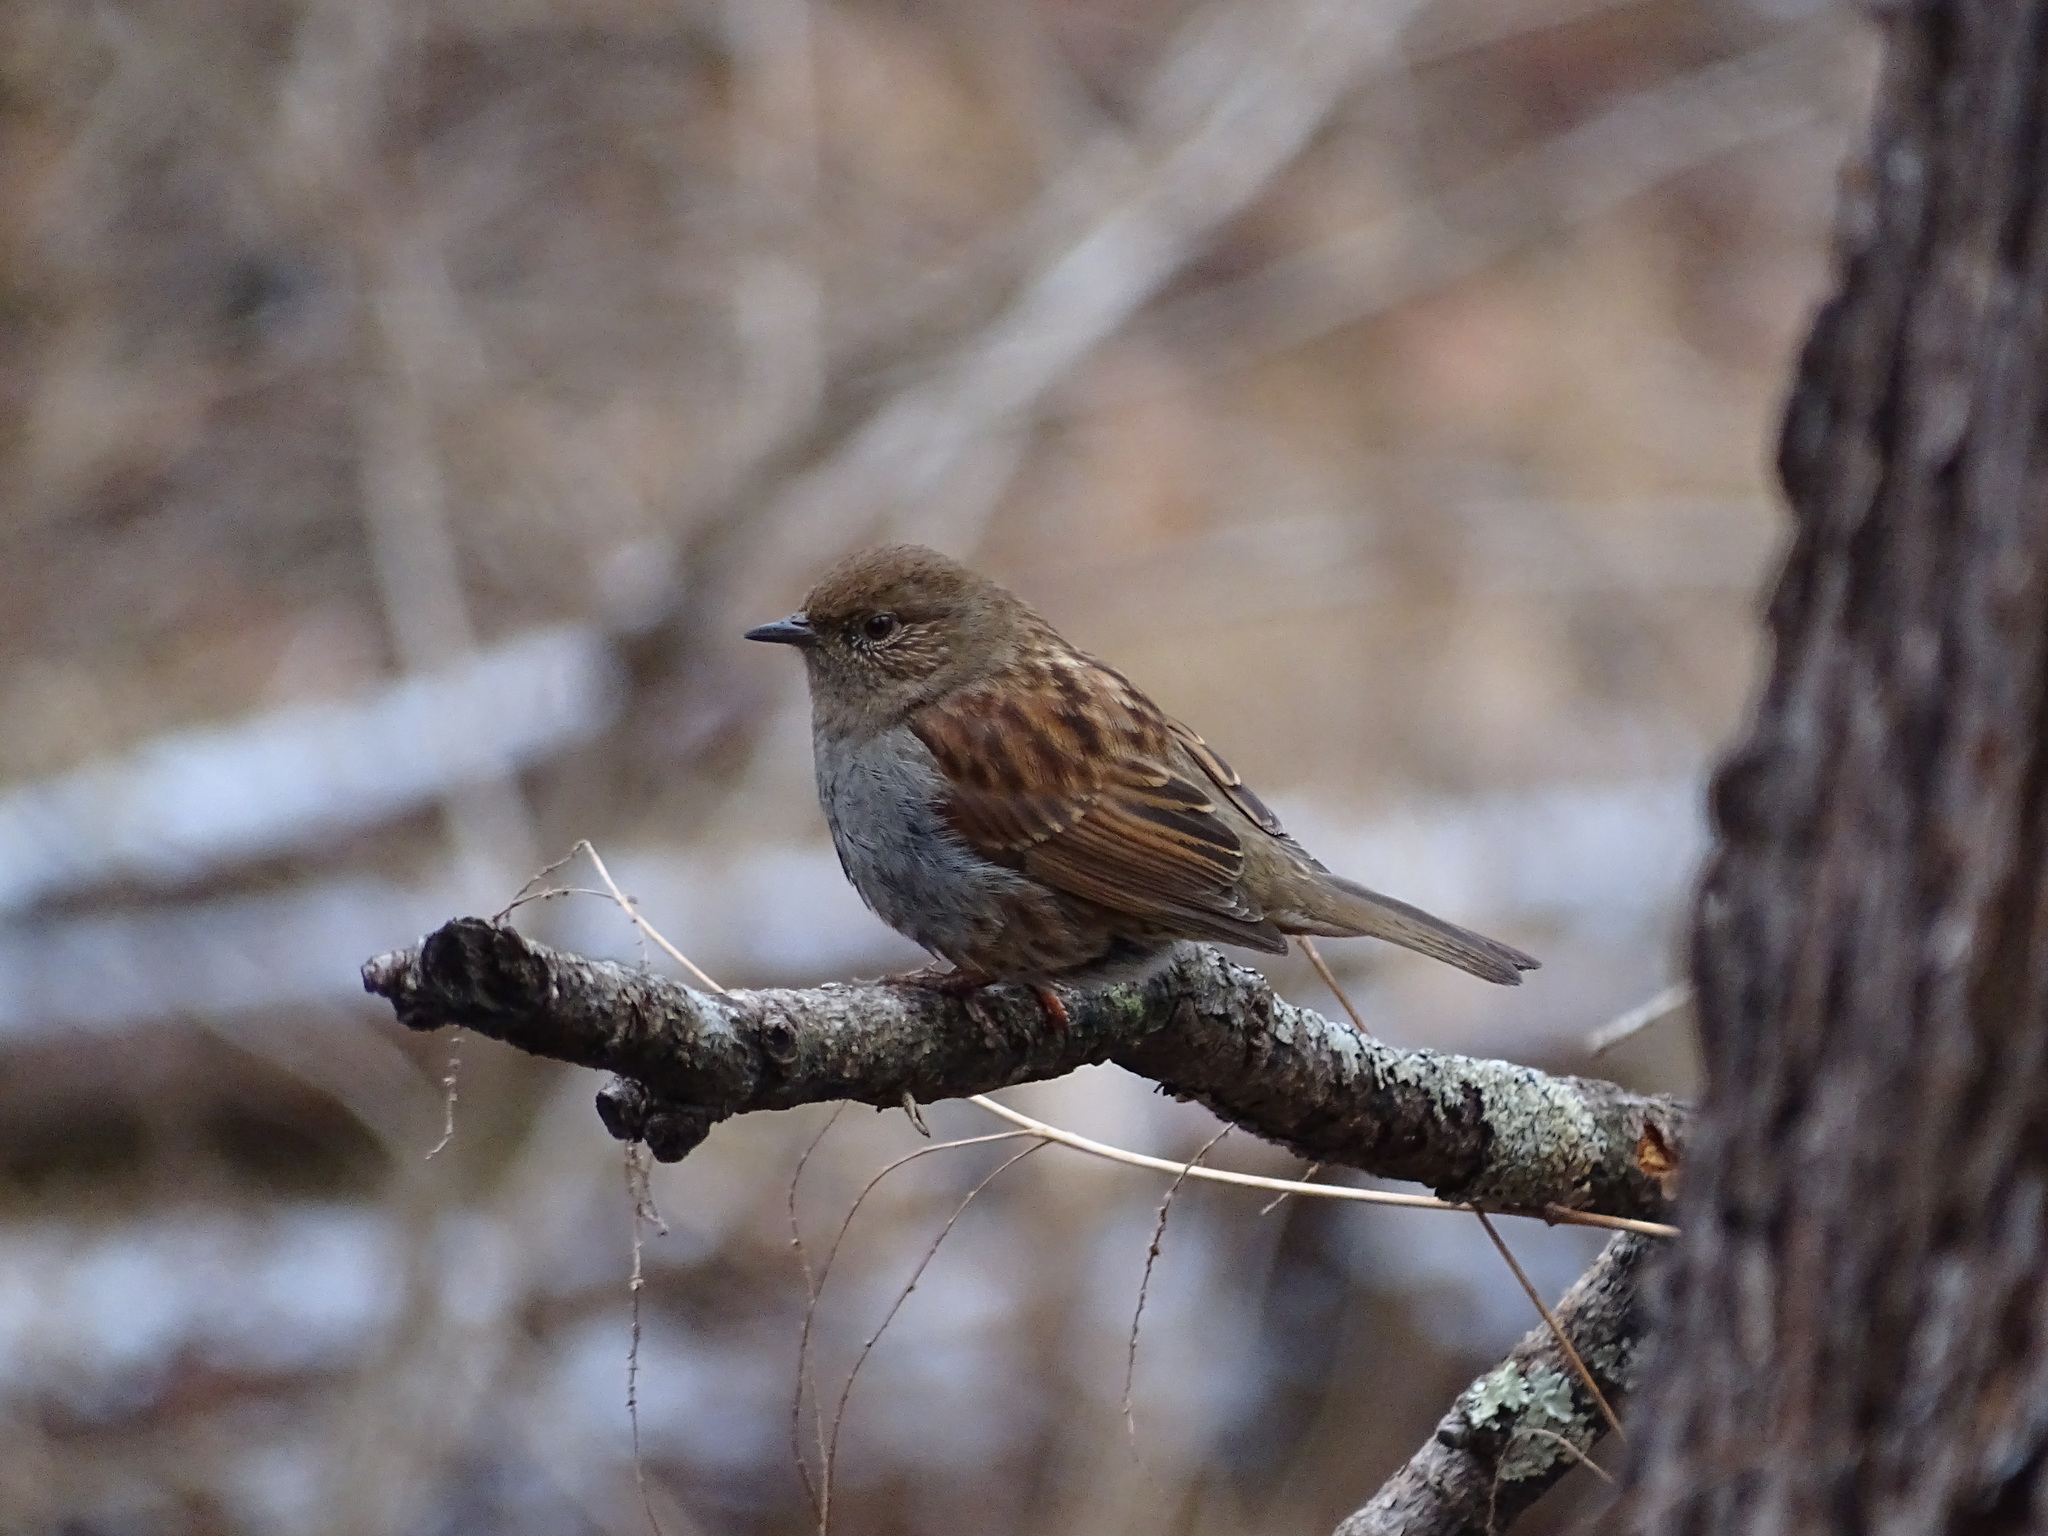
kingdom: Animalia
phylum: Chordata
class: Aves
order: Passeriformes
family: Prunellidae
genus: Prunella
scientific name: Prunella rubida
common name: Japanese accentor
